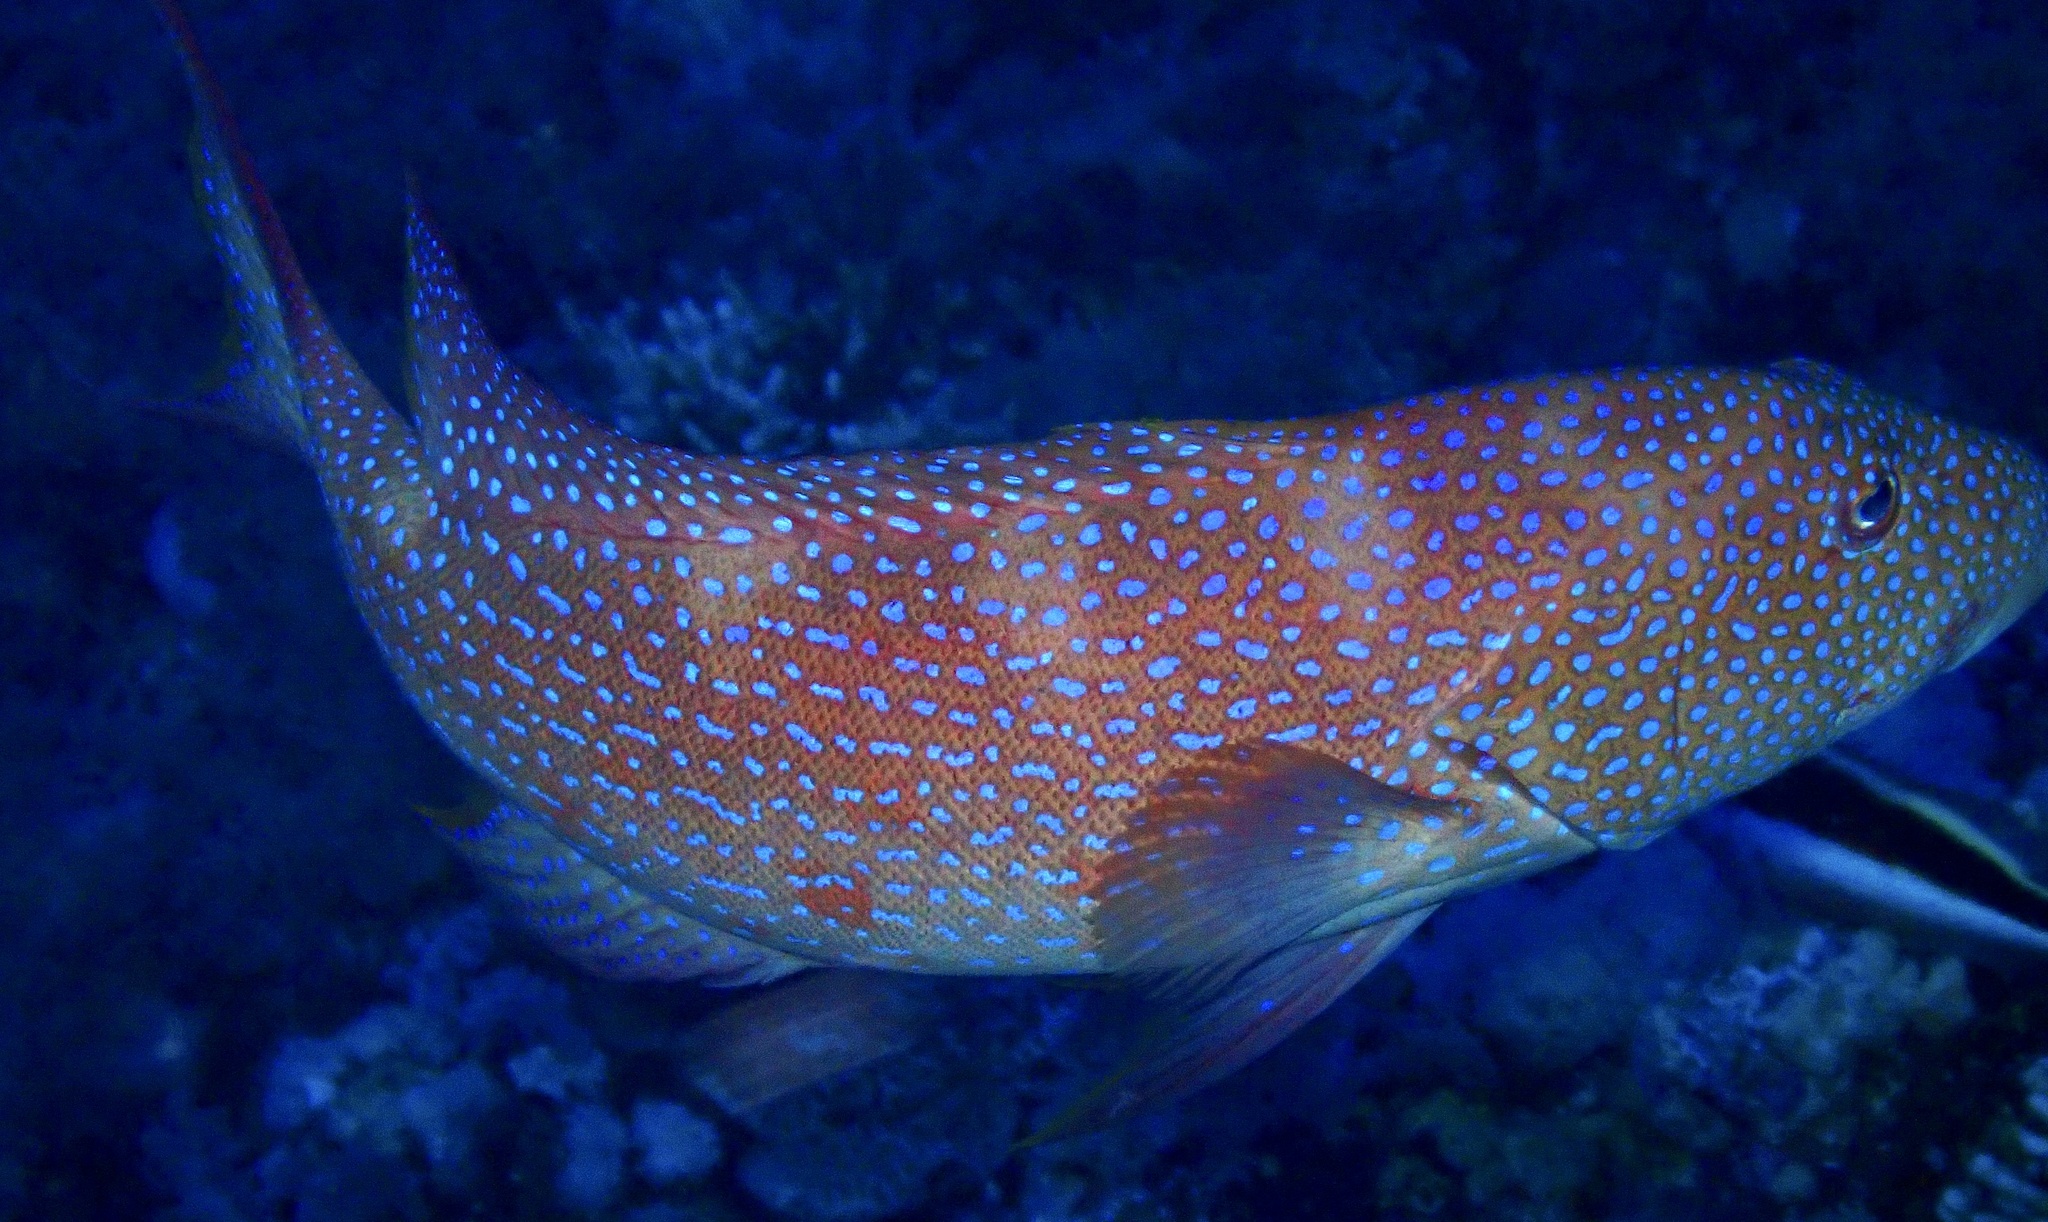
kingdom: Animalia
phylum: Chordata
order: Perciformes
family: Serranidae
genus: Variola
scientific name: Variola louti
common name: Yellow-edged lyretail
